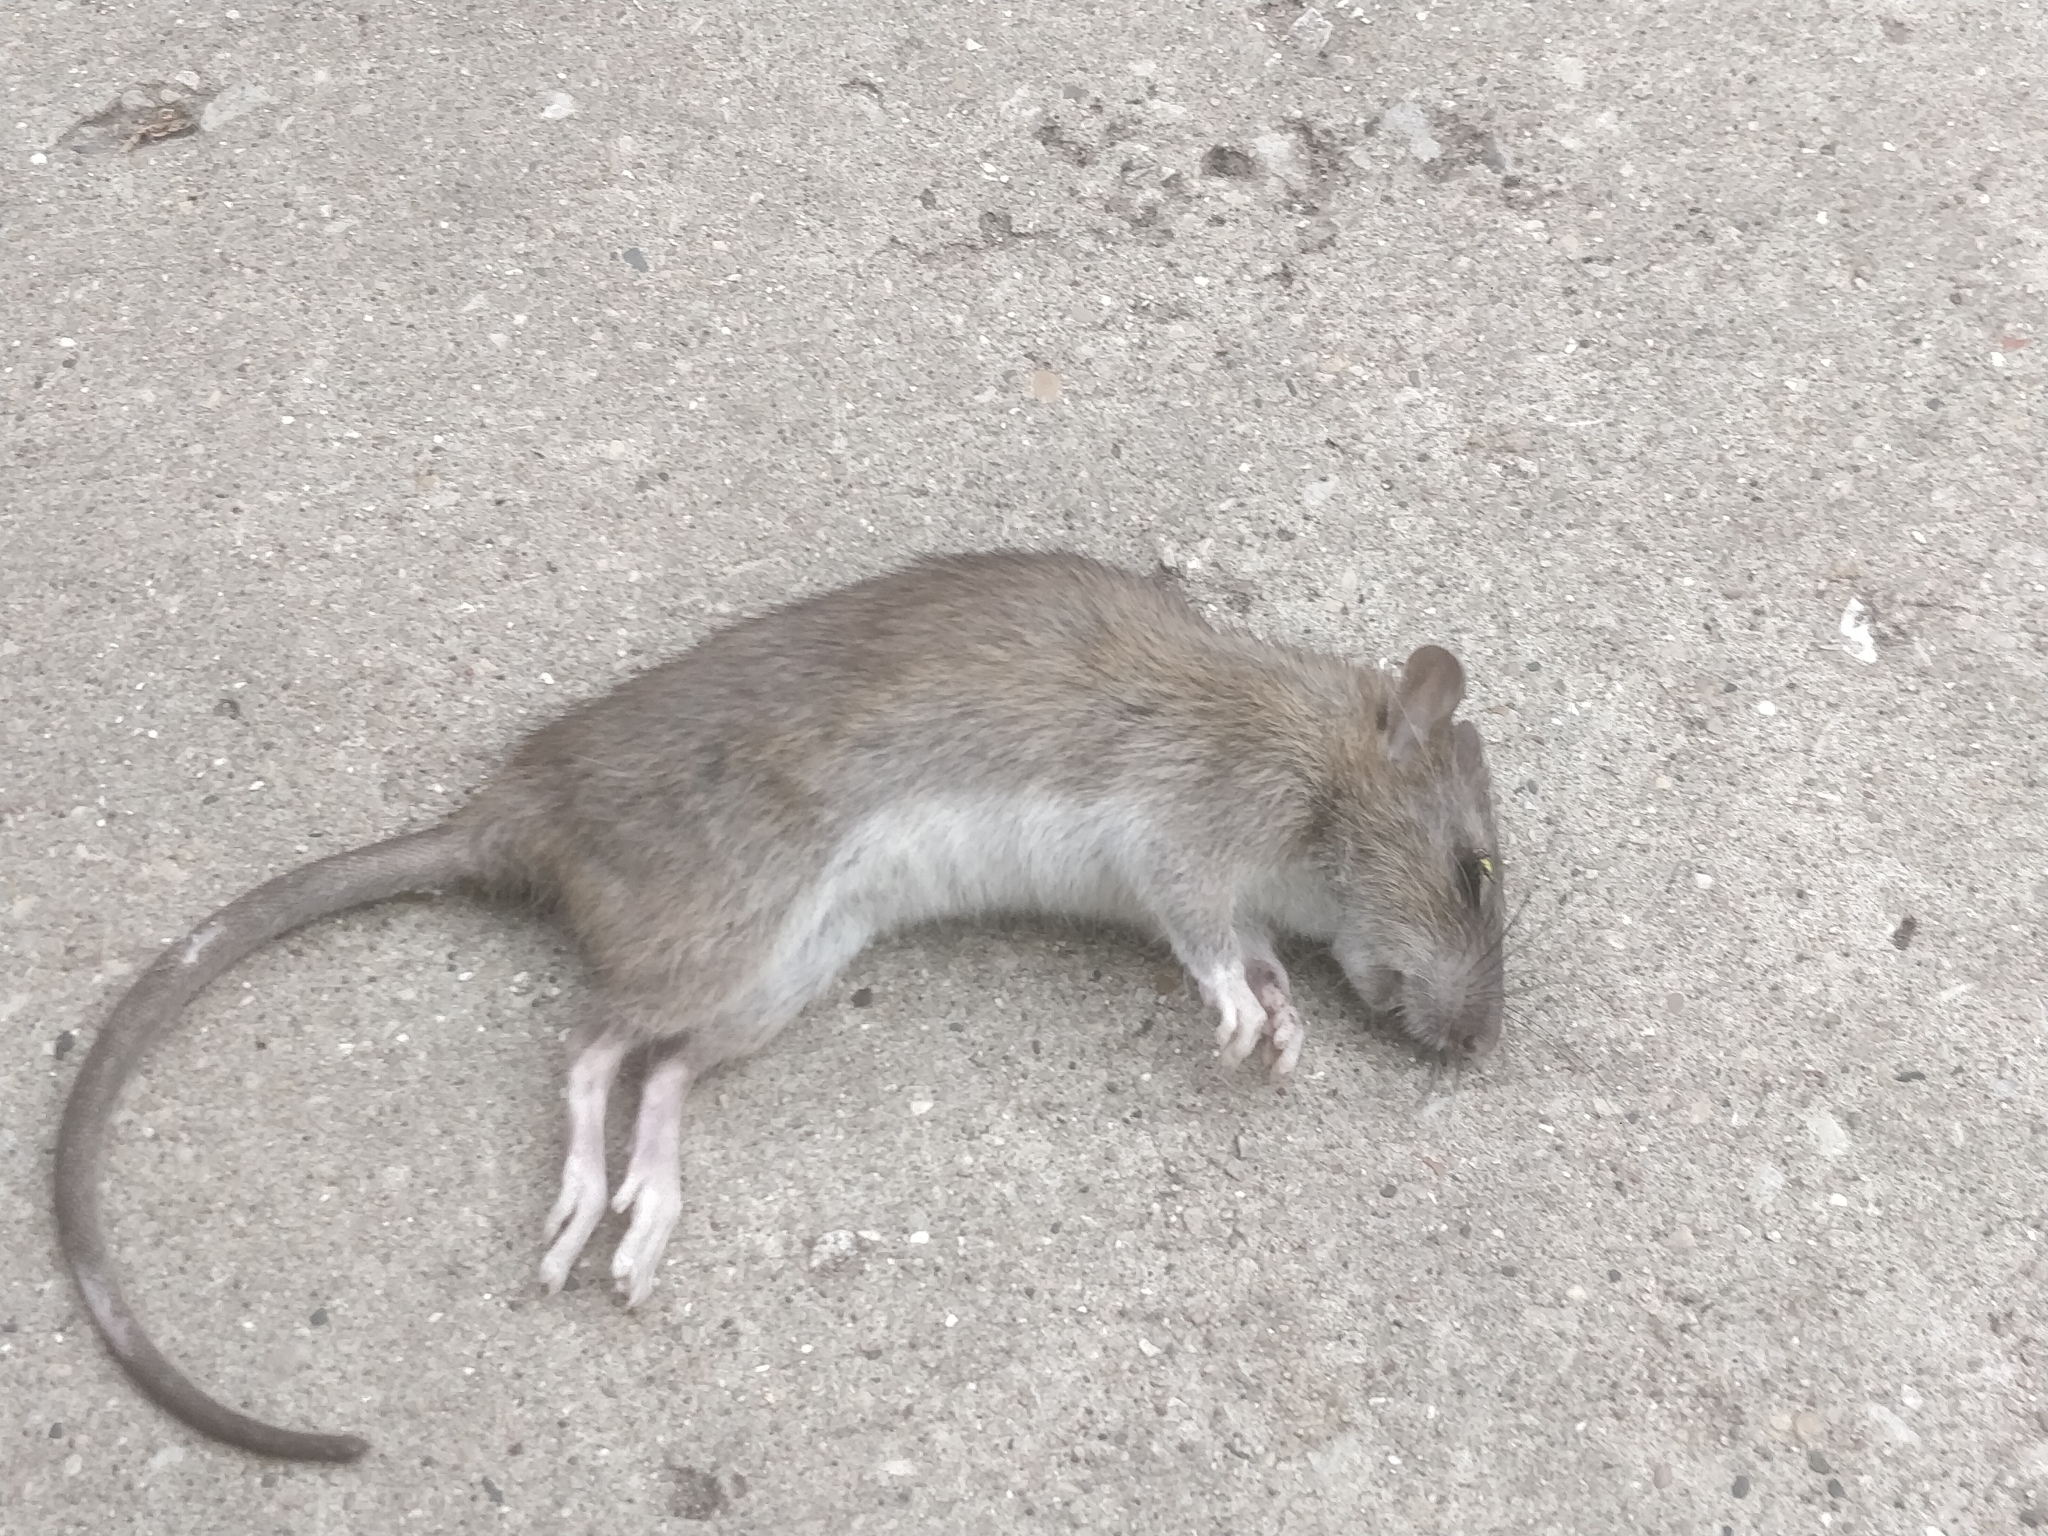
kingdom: Animalia
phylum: Chordata
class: Mammalia
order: Rodentia
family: Muridae
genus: Rattus
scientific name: Rattus norvegicus
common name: Brown rat
